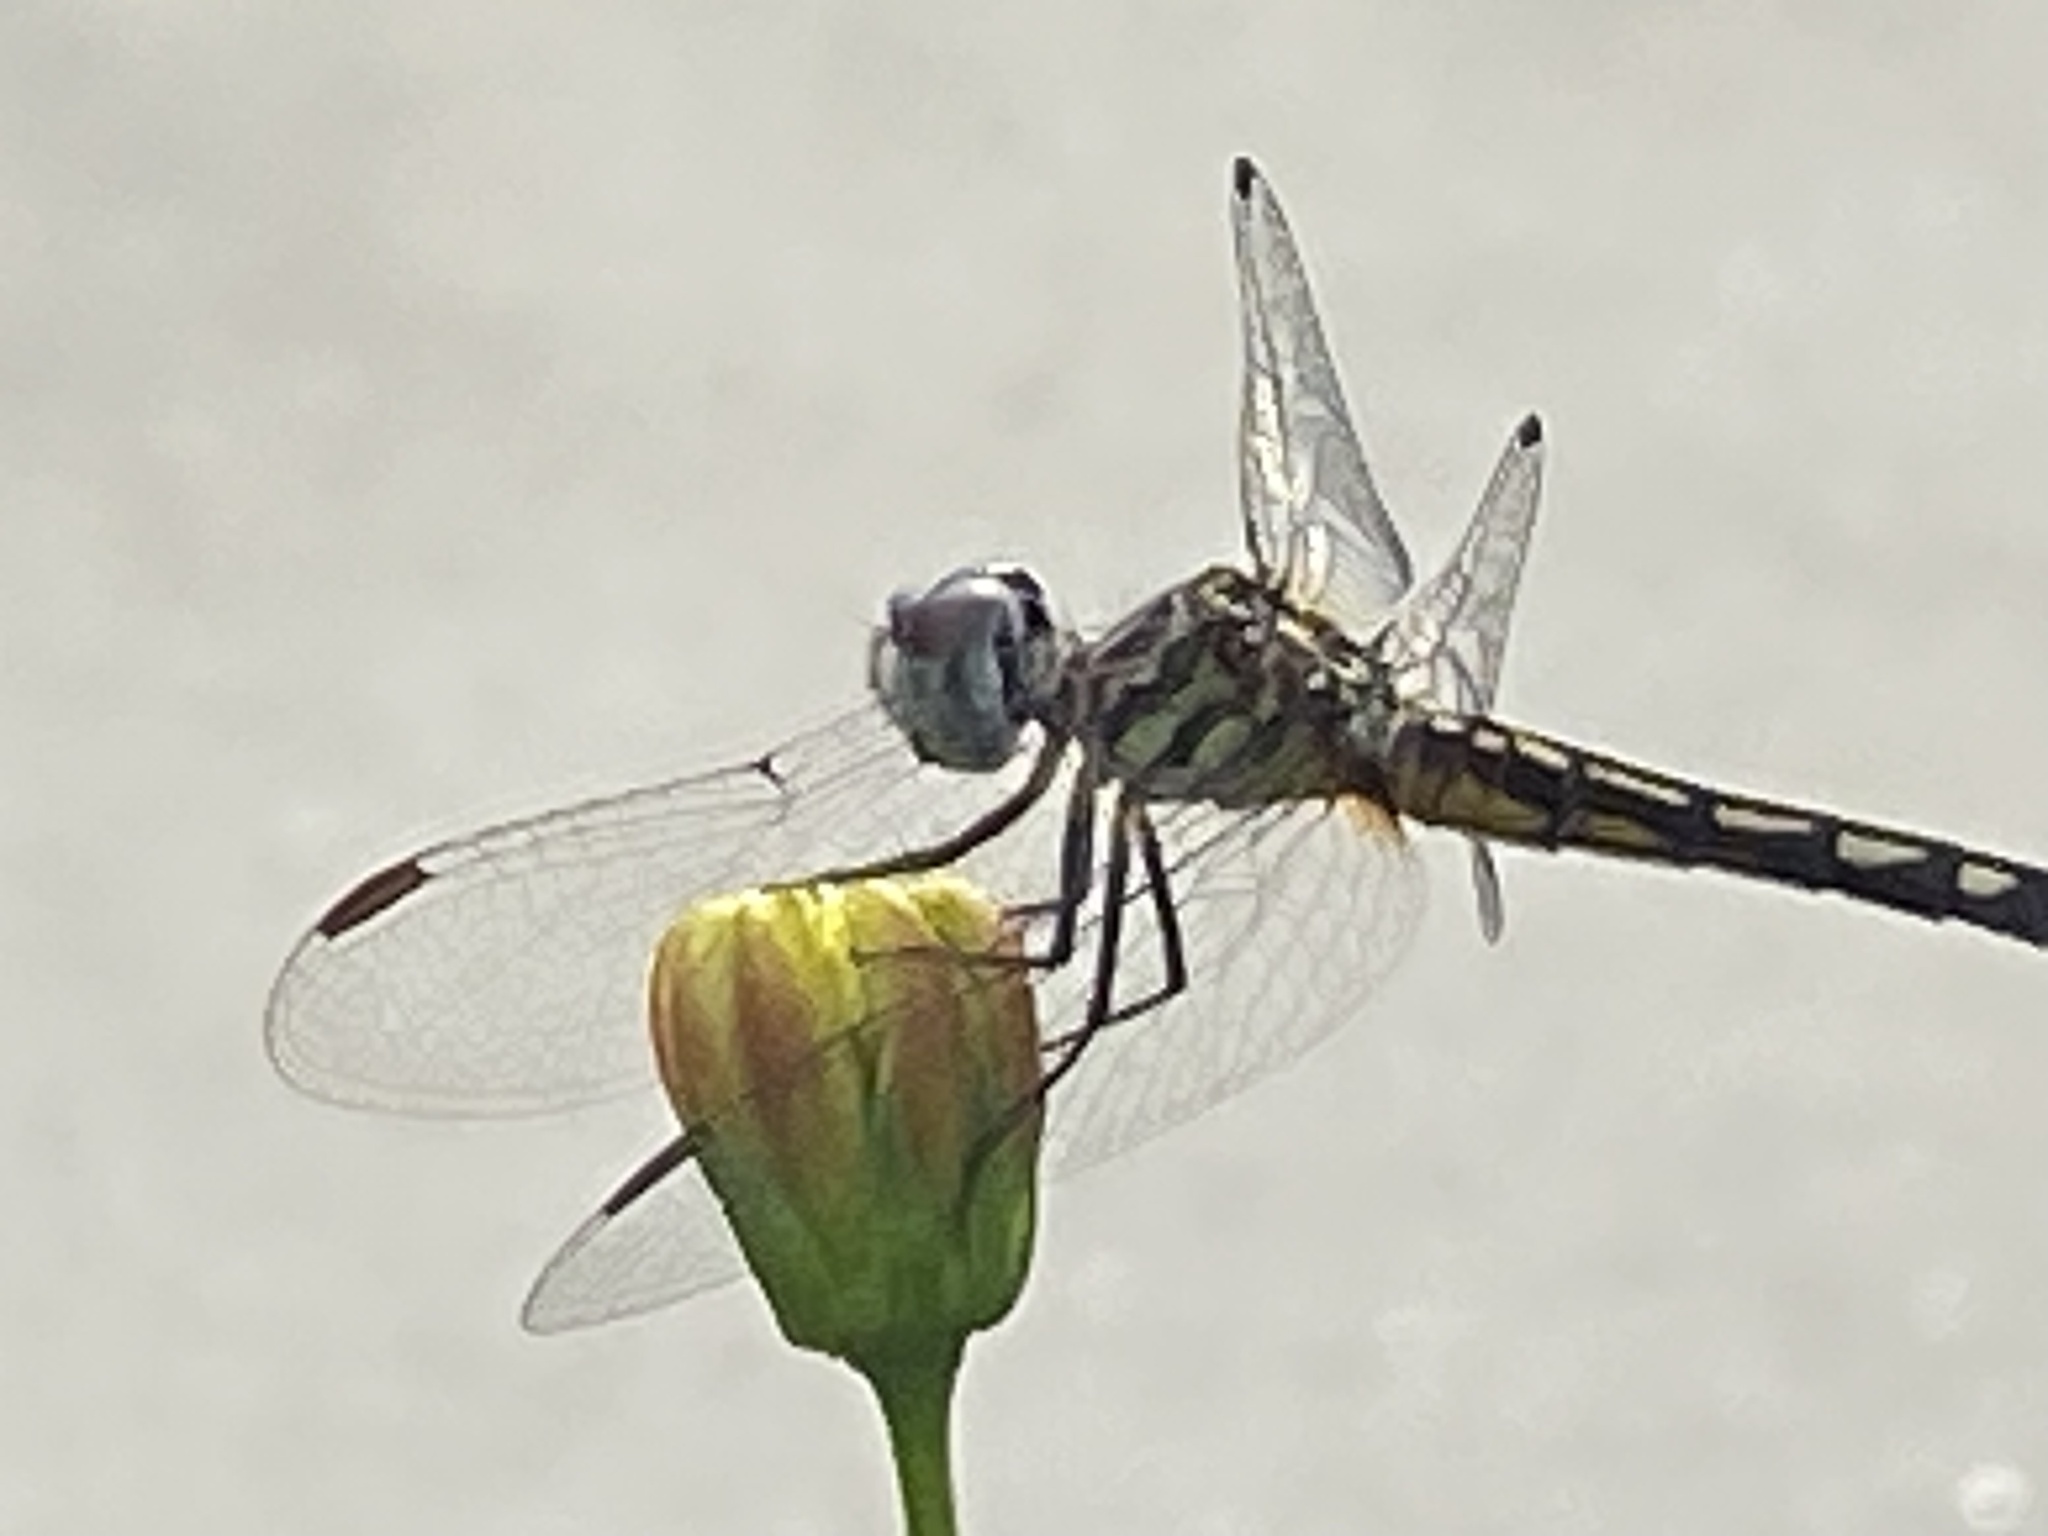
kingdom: Animalia
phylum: Arthropoda
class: Insecta
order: Odonata
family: Libellulidae
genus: Pachydiplax
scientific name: Pachydiplax longipennis
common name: Blue dasher
